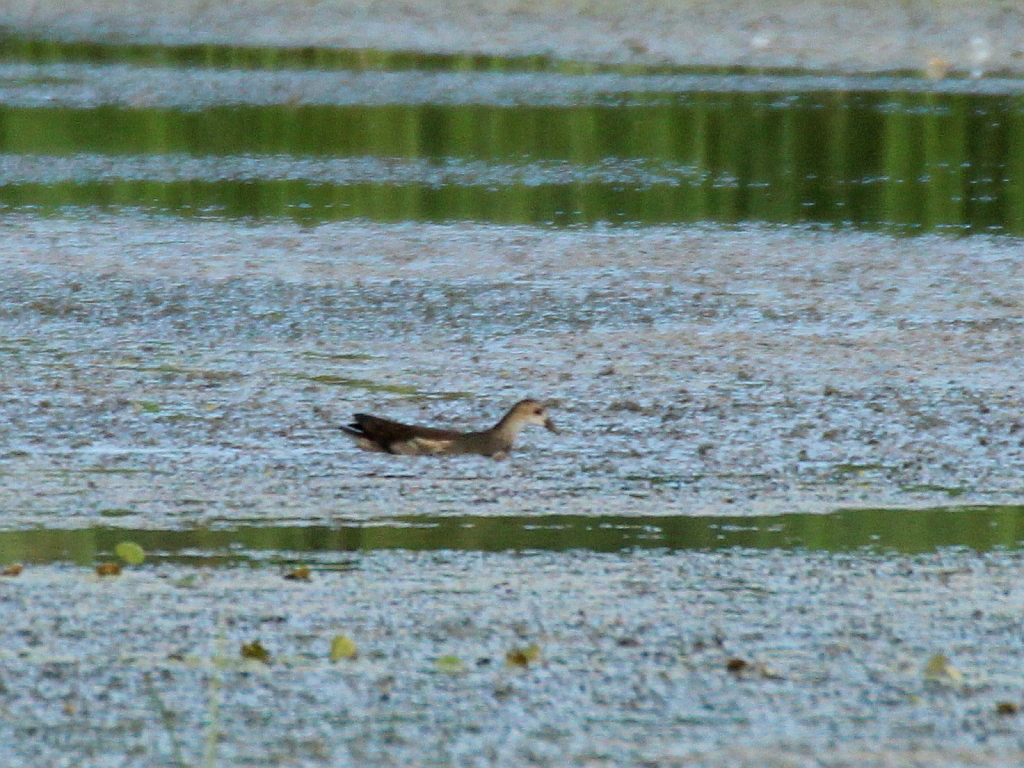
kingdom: Animalia
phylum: Chordata
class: Aves
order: Gruiformes
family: Rallidae
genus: Gallinula
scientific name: Gallinula chloropus
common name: Common moorhen
